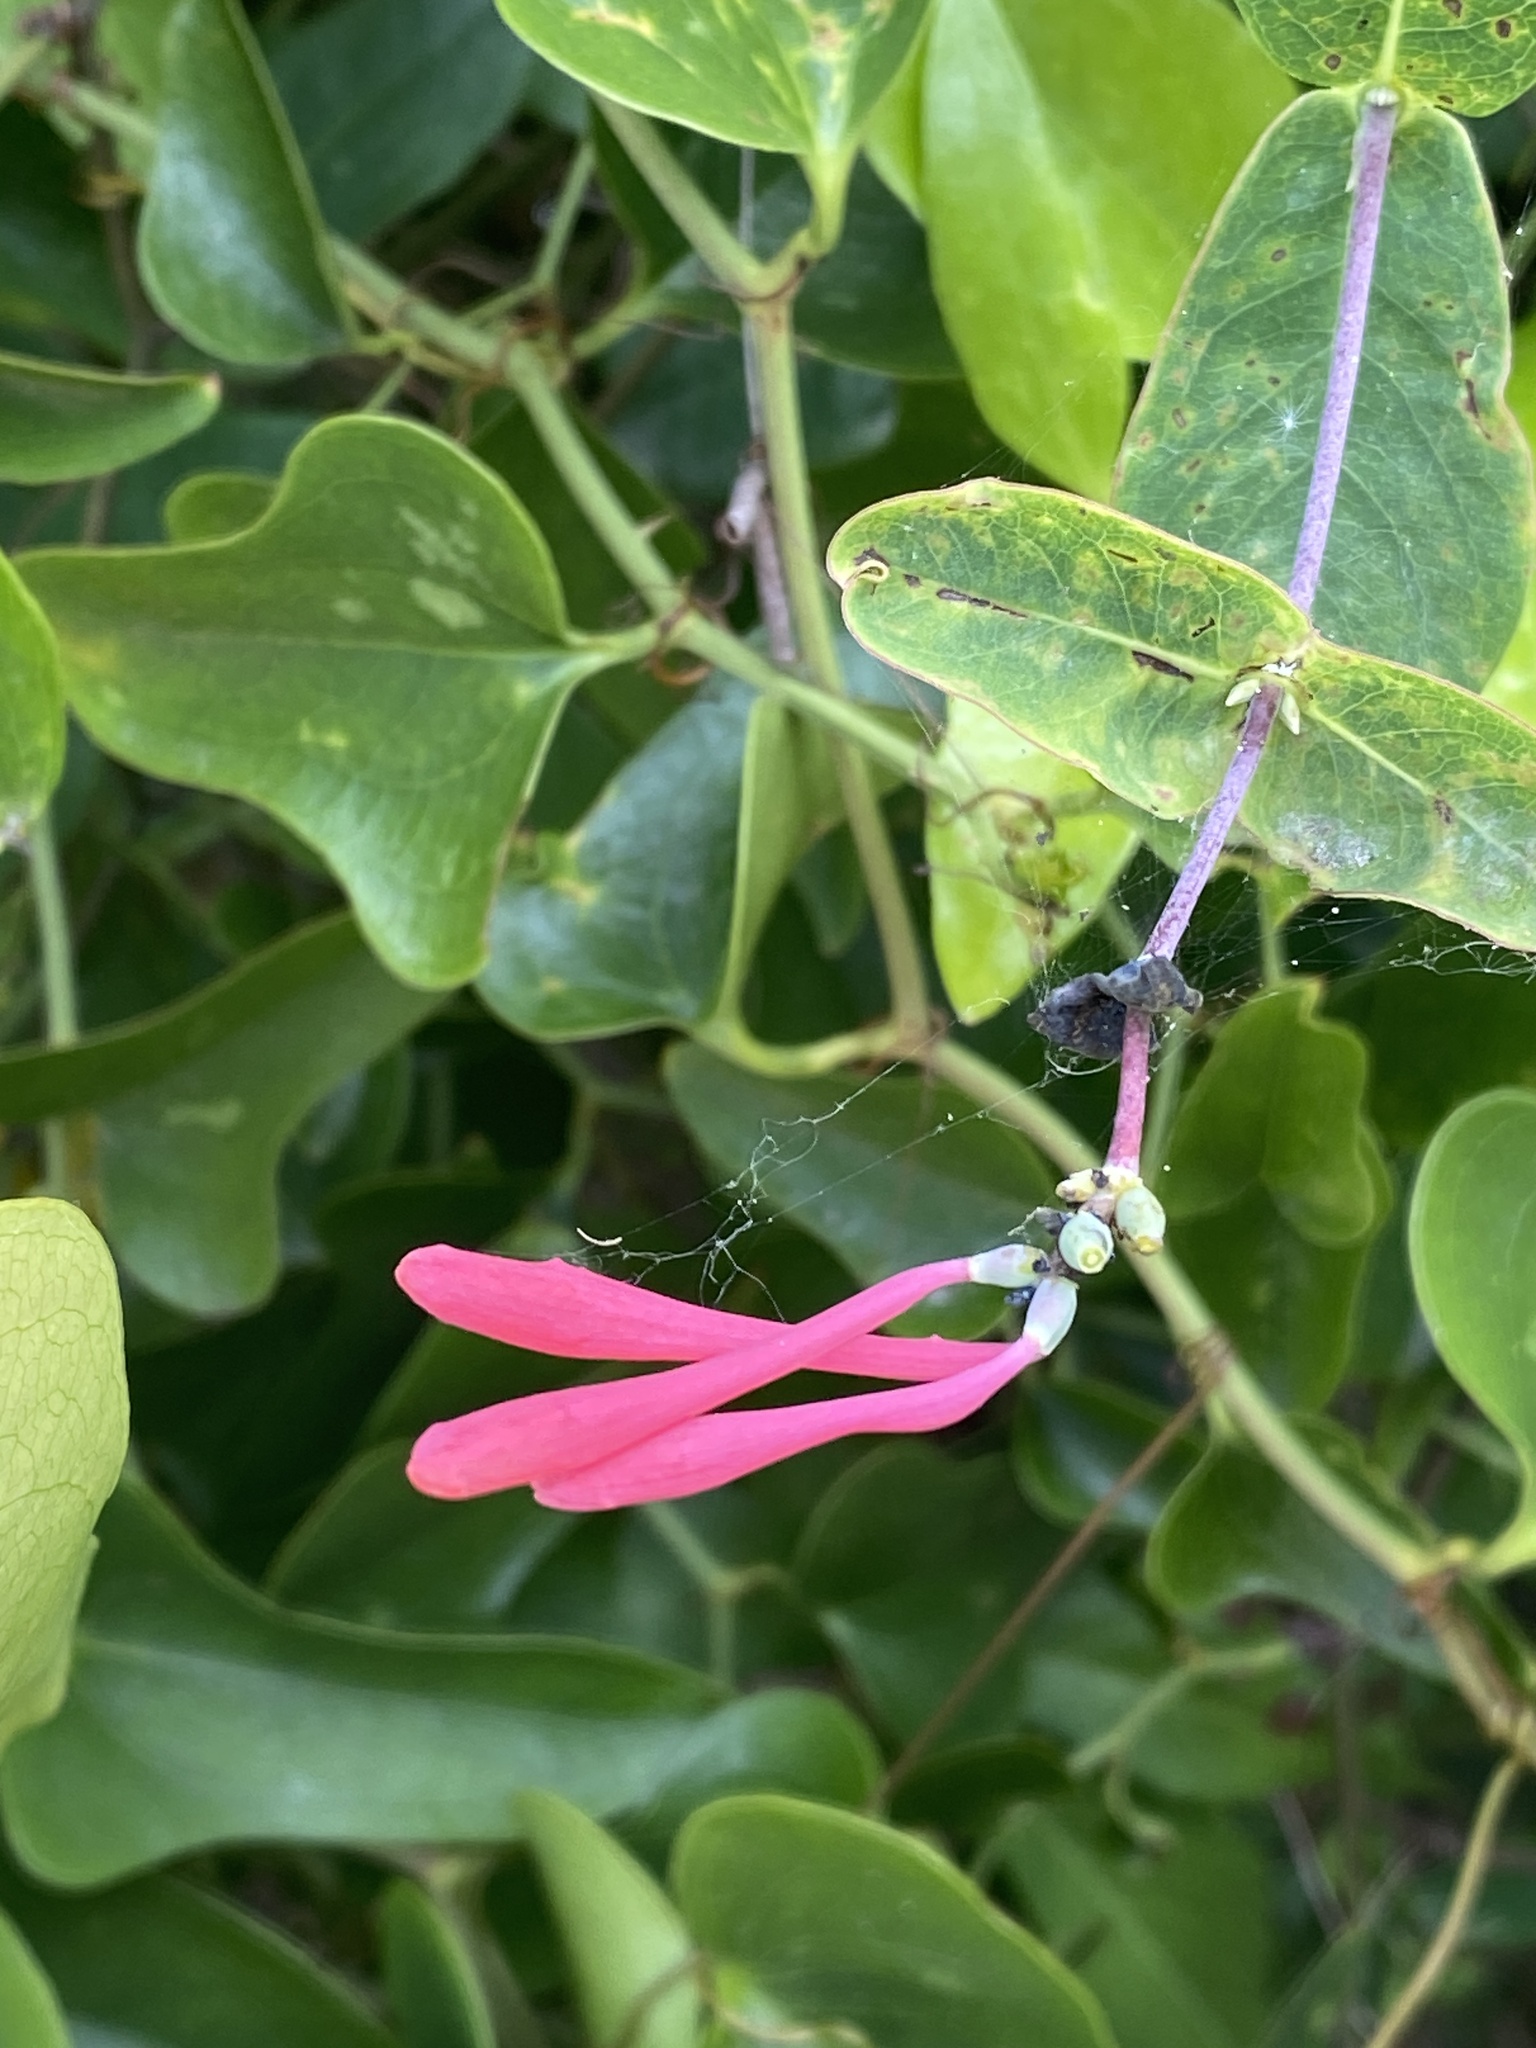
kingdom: Plantae
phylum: Tracheophyta
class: Magnoliopsida
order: Dipsacales
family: Caprifoliaceae
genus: Lonicera
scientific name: Lonicera sempervirens
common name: Coral honeysuckle
